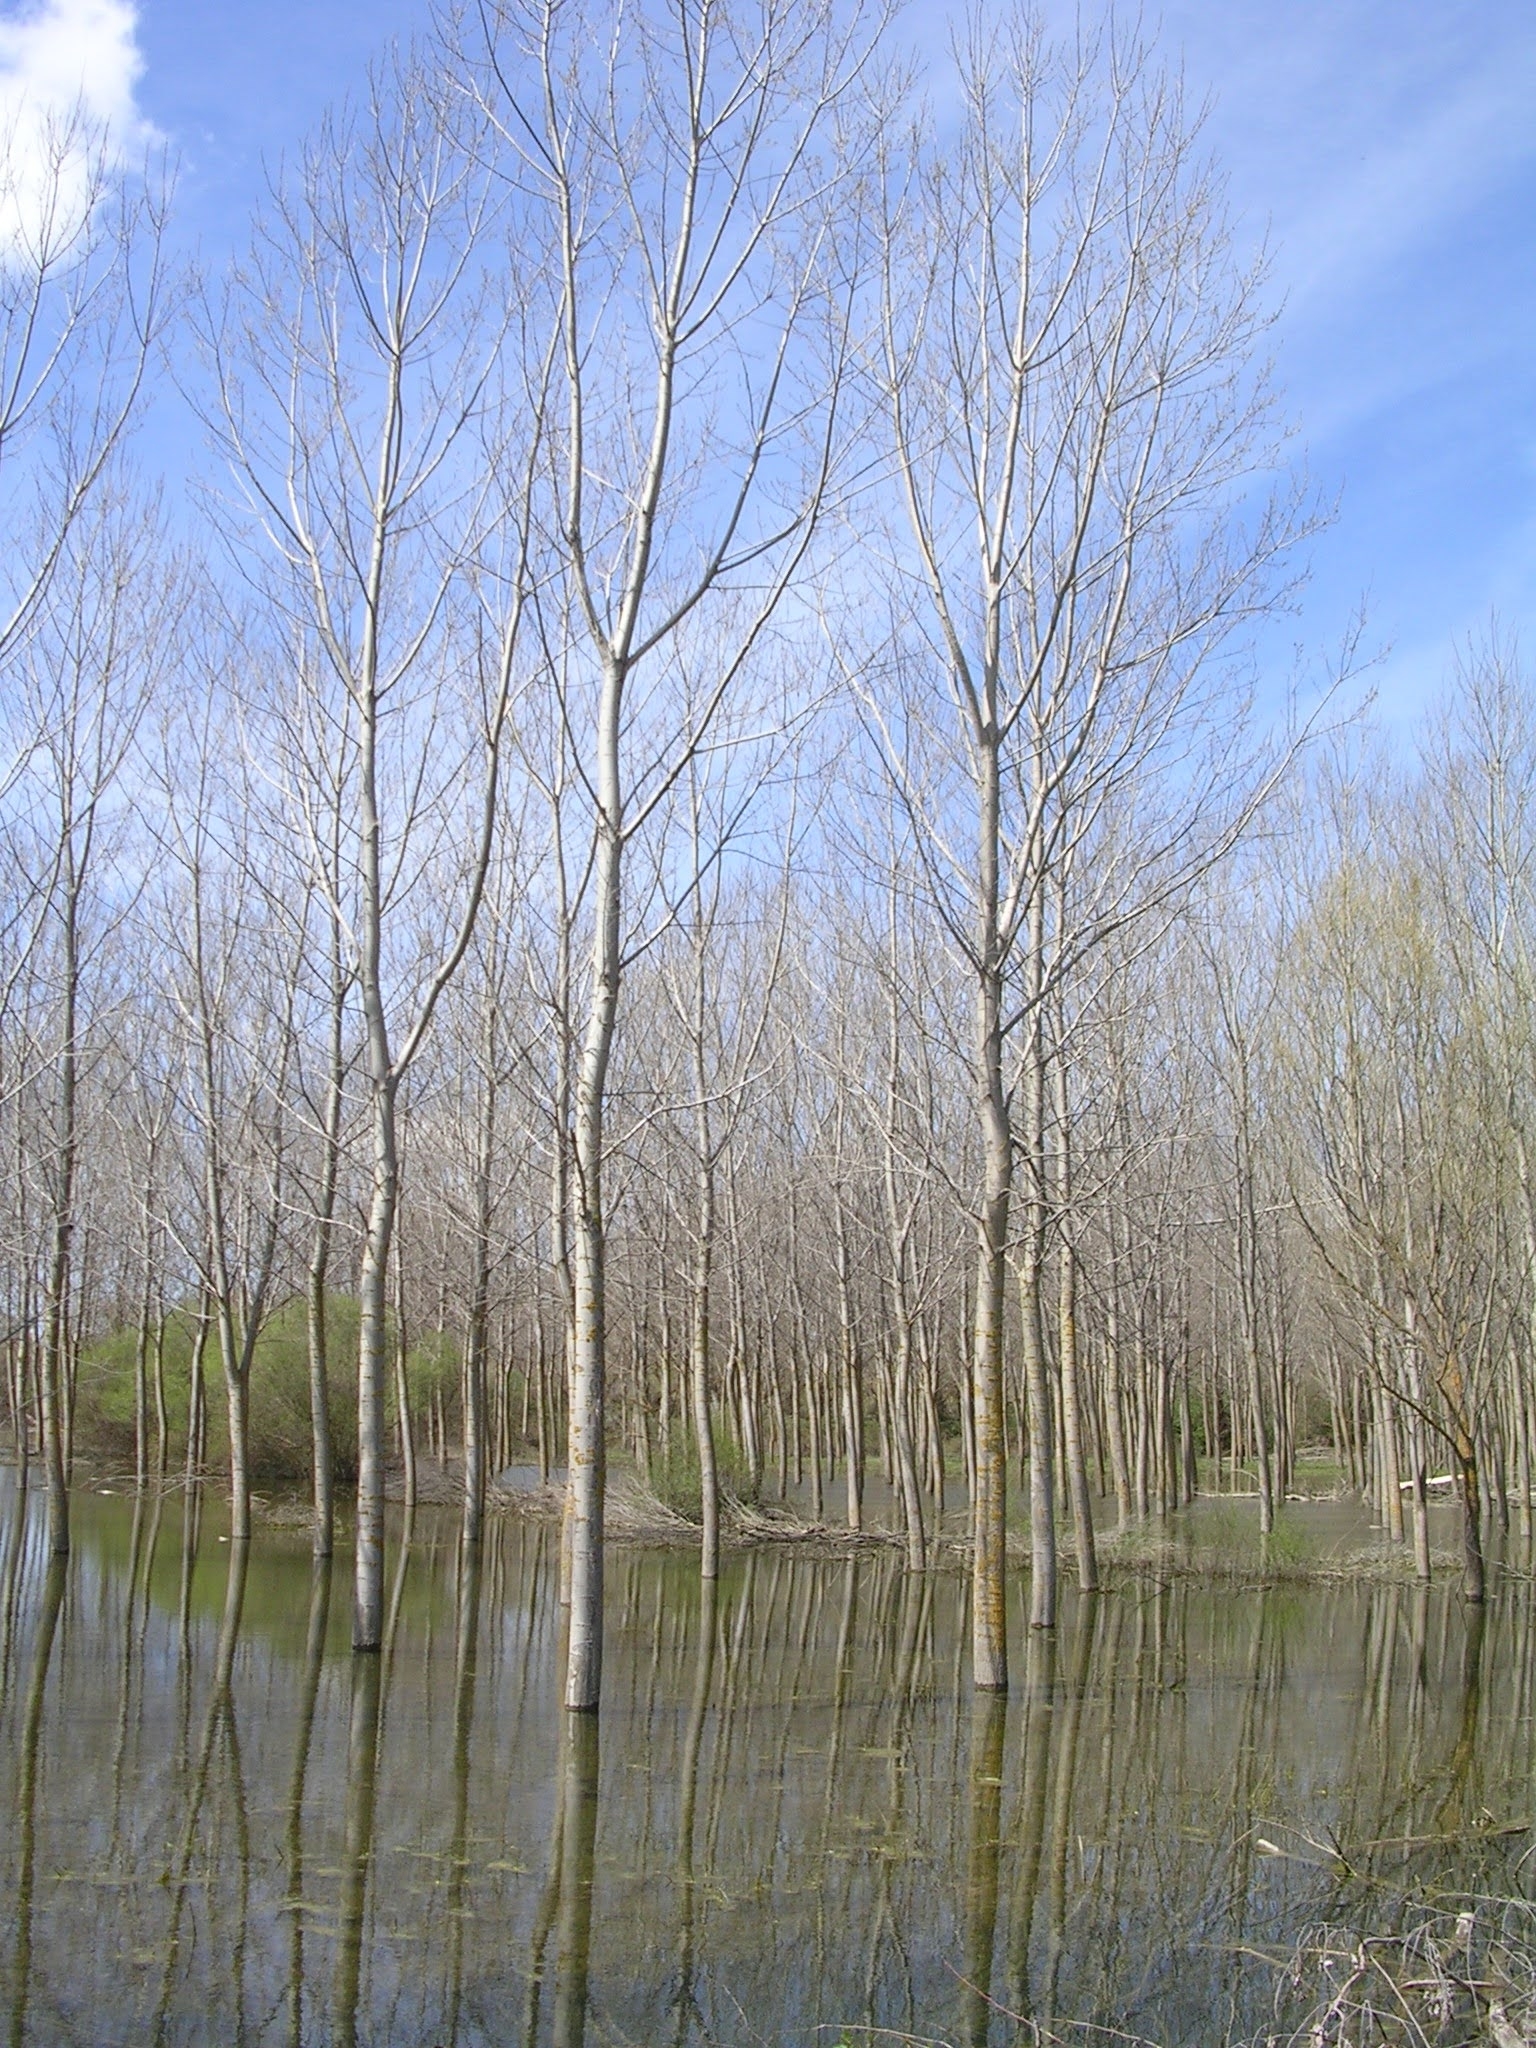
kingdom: Plantae
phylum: Tracheophyta
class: Magnoliopsida
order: Malpighiales
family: Salicaceae
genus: Populus
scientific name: Populus alba
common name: White poplar
